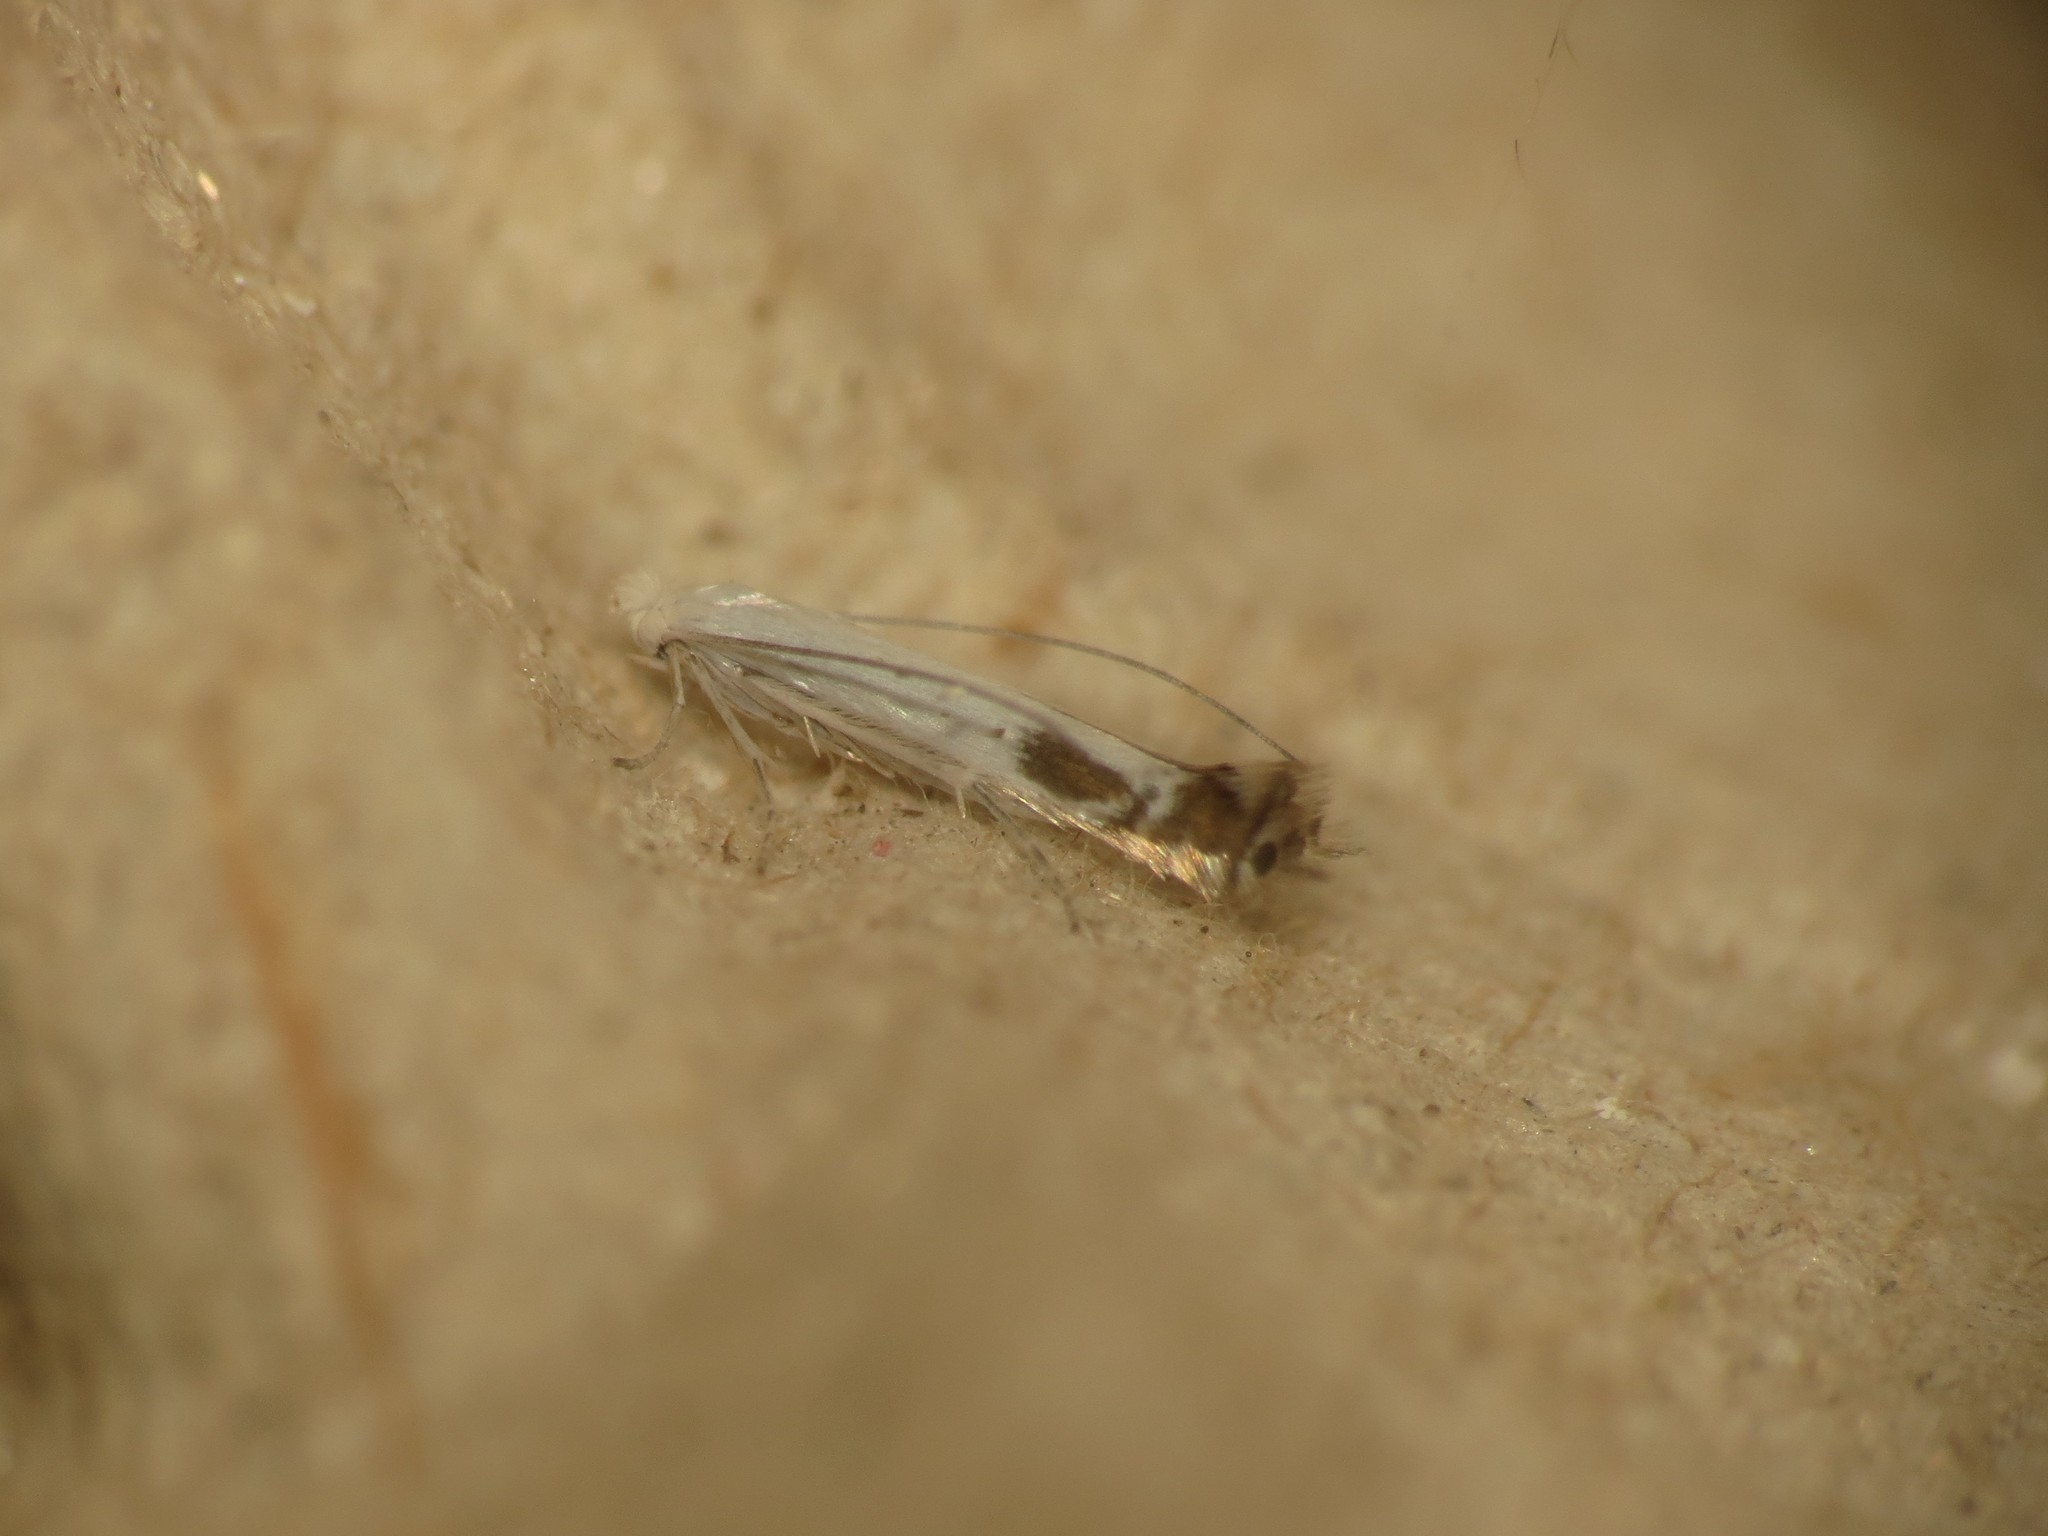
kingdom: Animalia
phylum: Arthropoda
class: Insecta
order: Lepidoptera
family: Lyonetiidae
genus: Lyonetia
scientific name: Lyonetia clerkella
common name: Apple leaf miner
